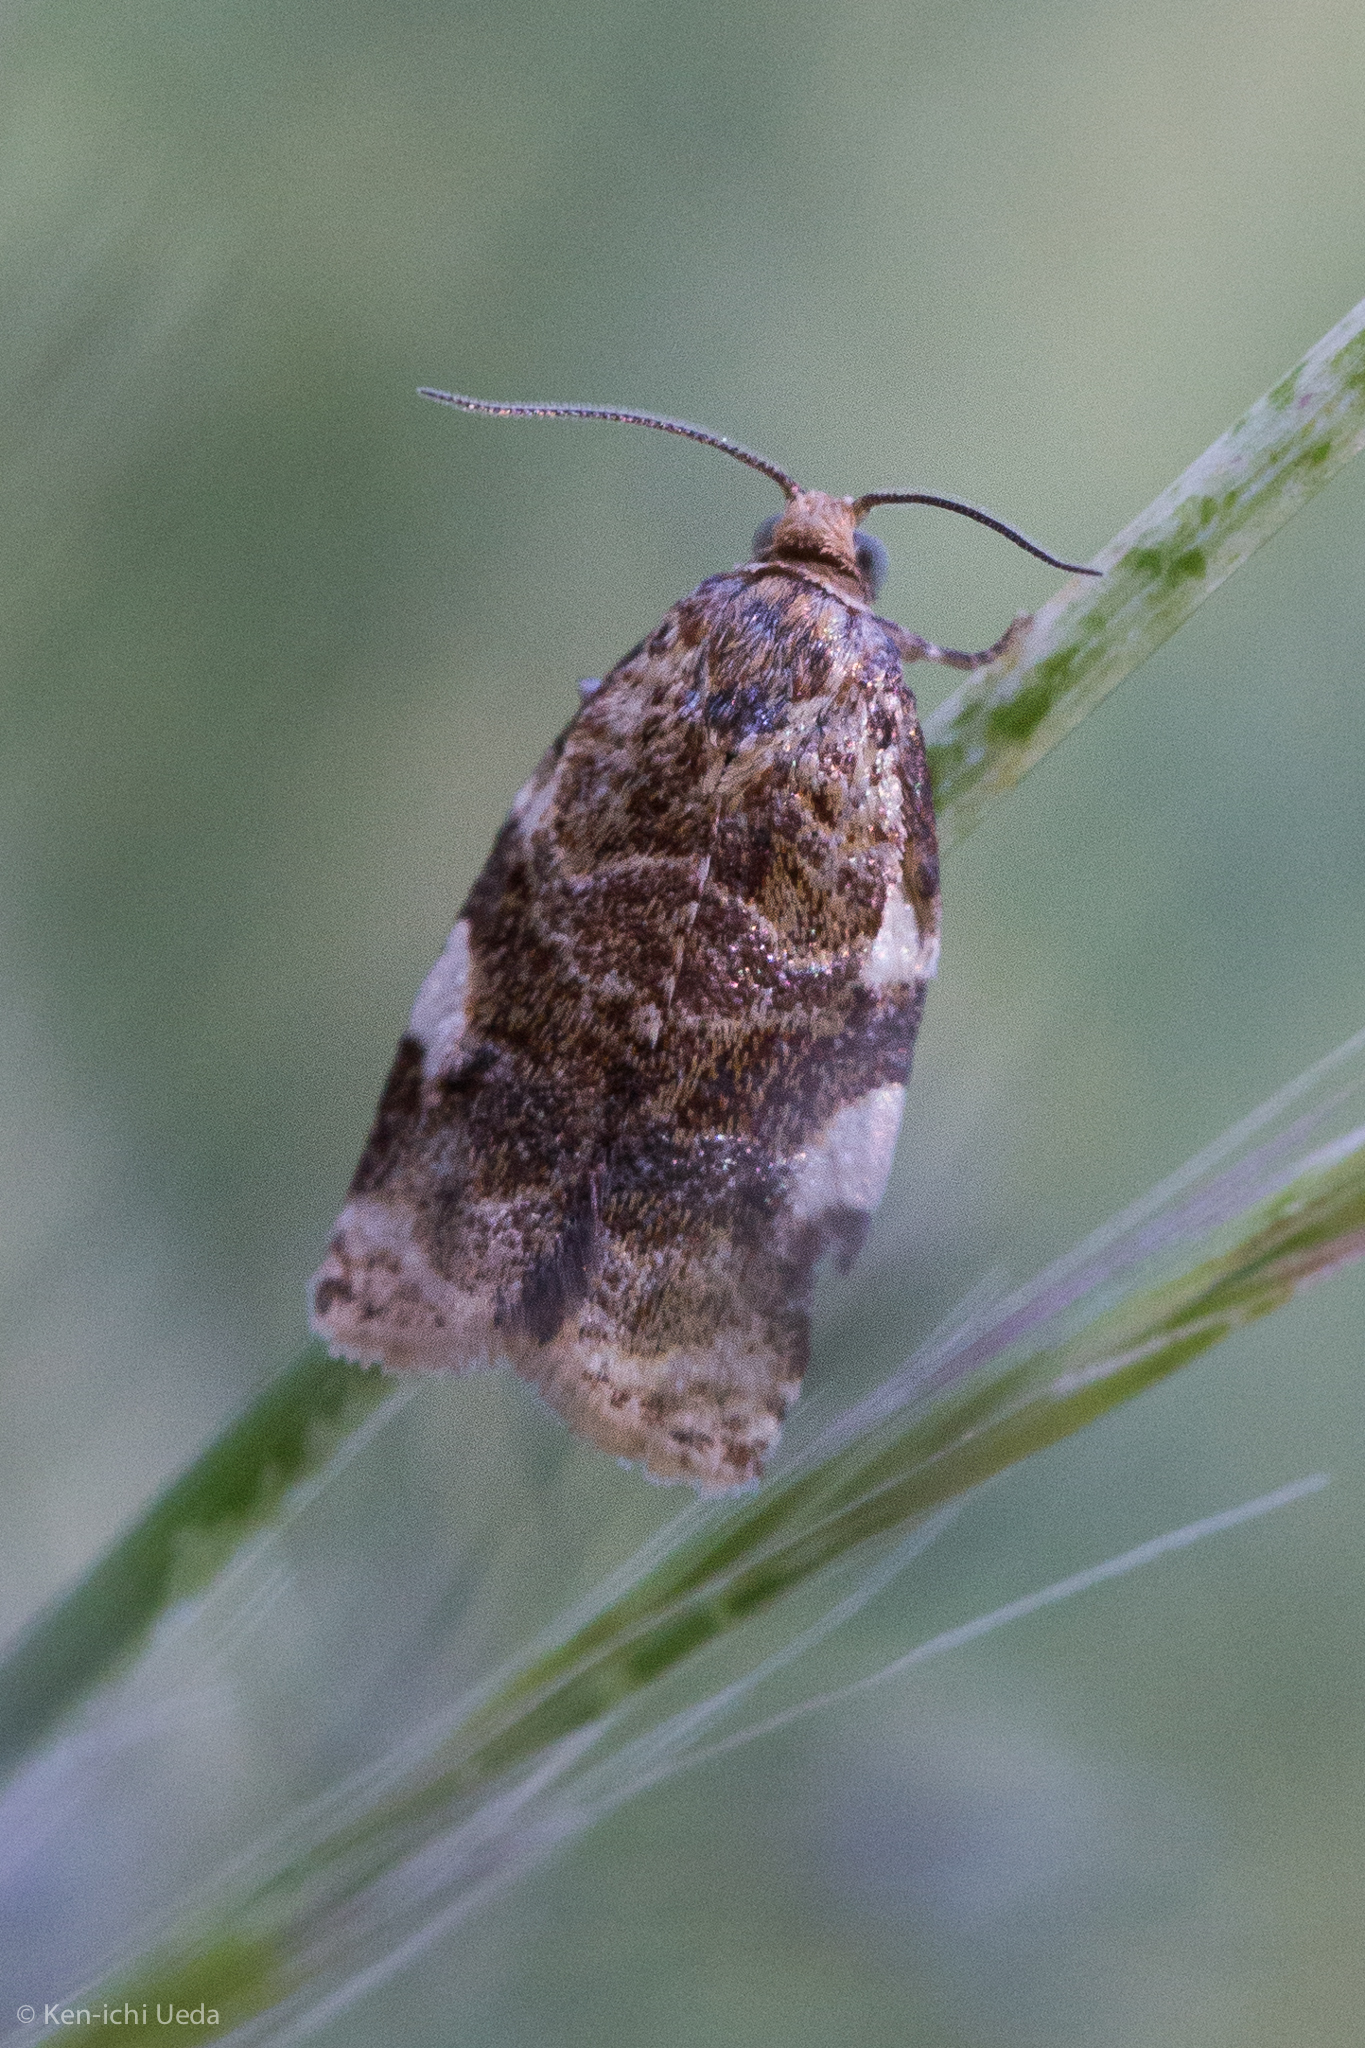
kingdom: Animalia
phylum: Arthropoda
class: Insecta
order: Lepidoptera
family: Tortricidae
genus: Archips
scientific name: Archips argyrospila
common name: Fruit-tree leafroller moth
